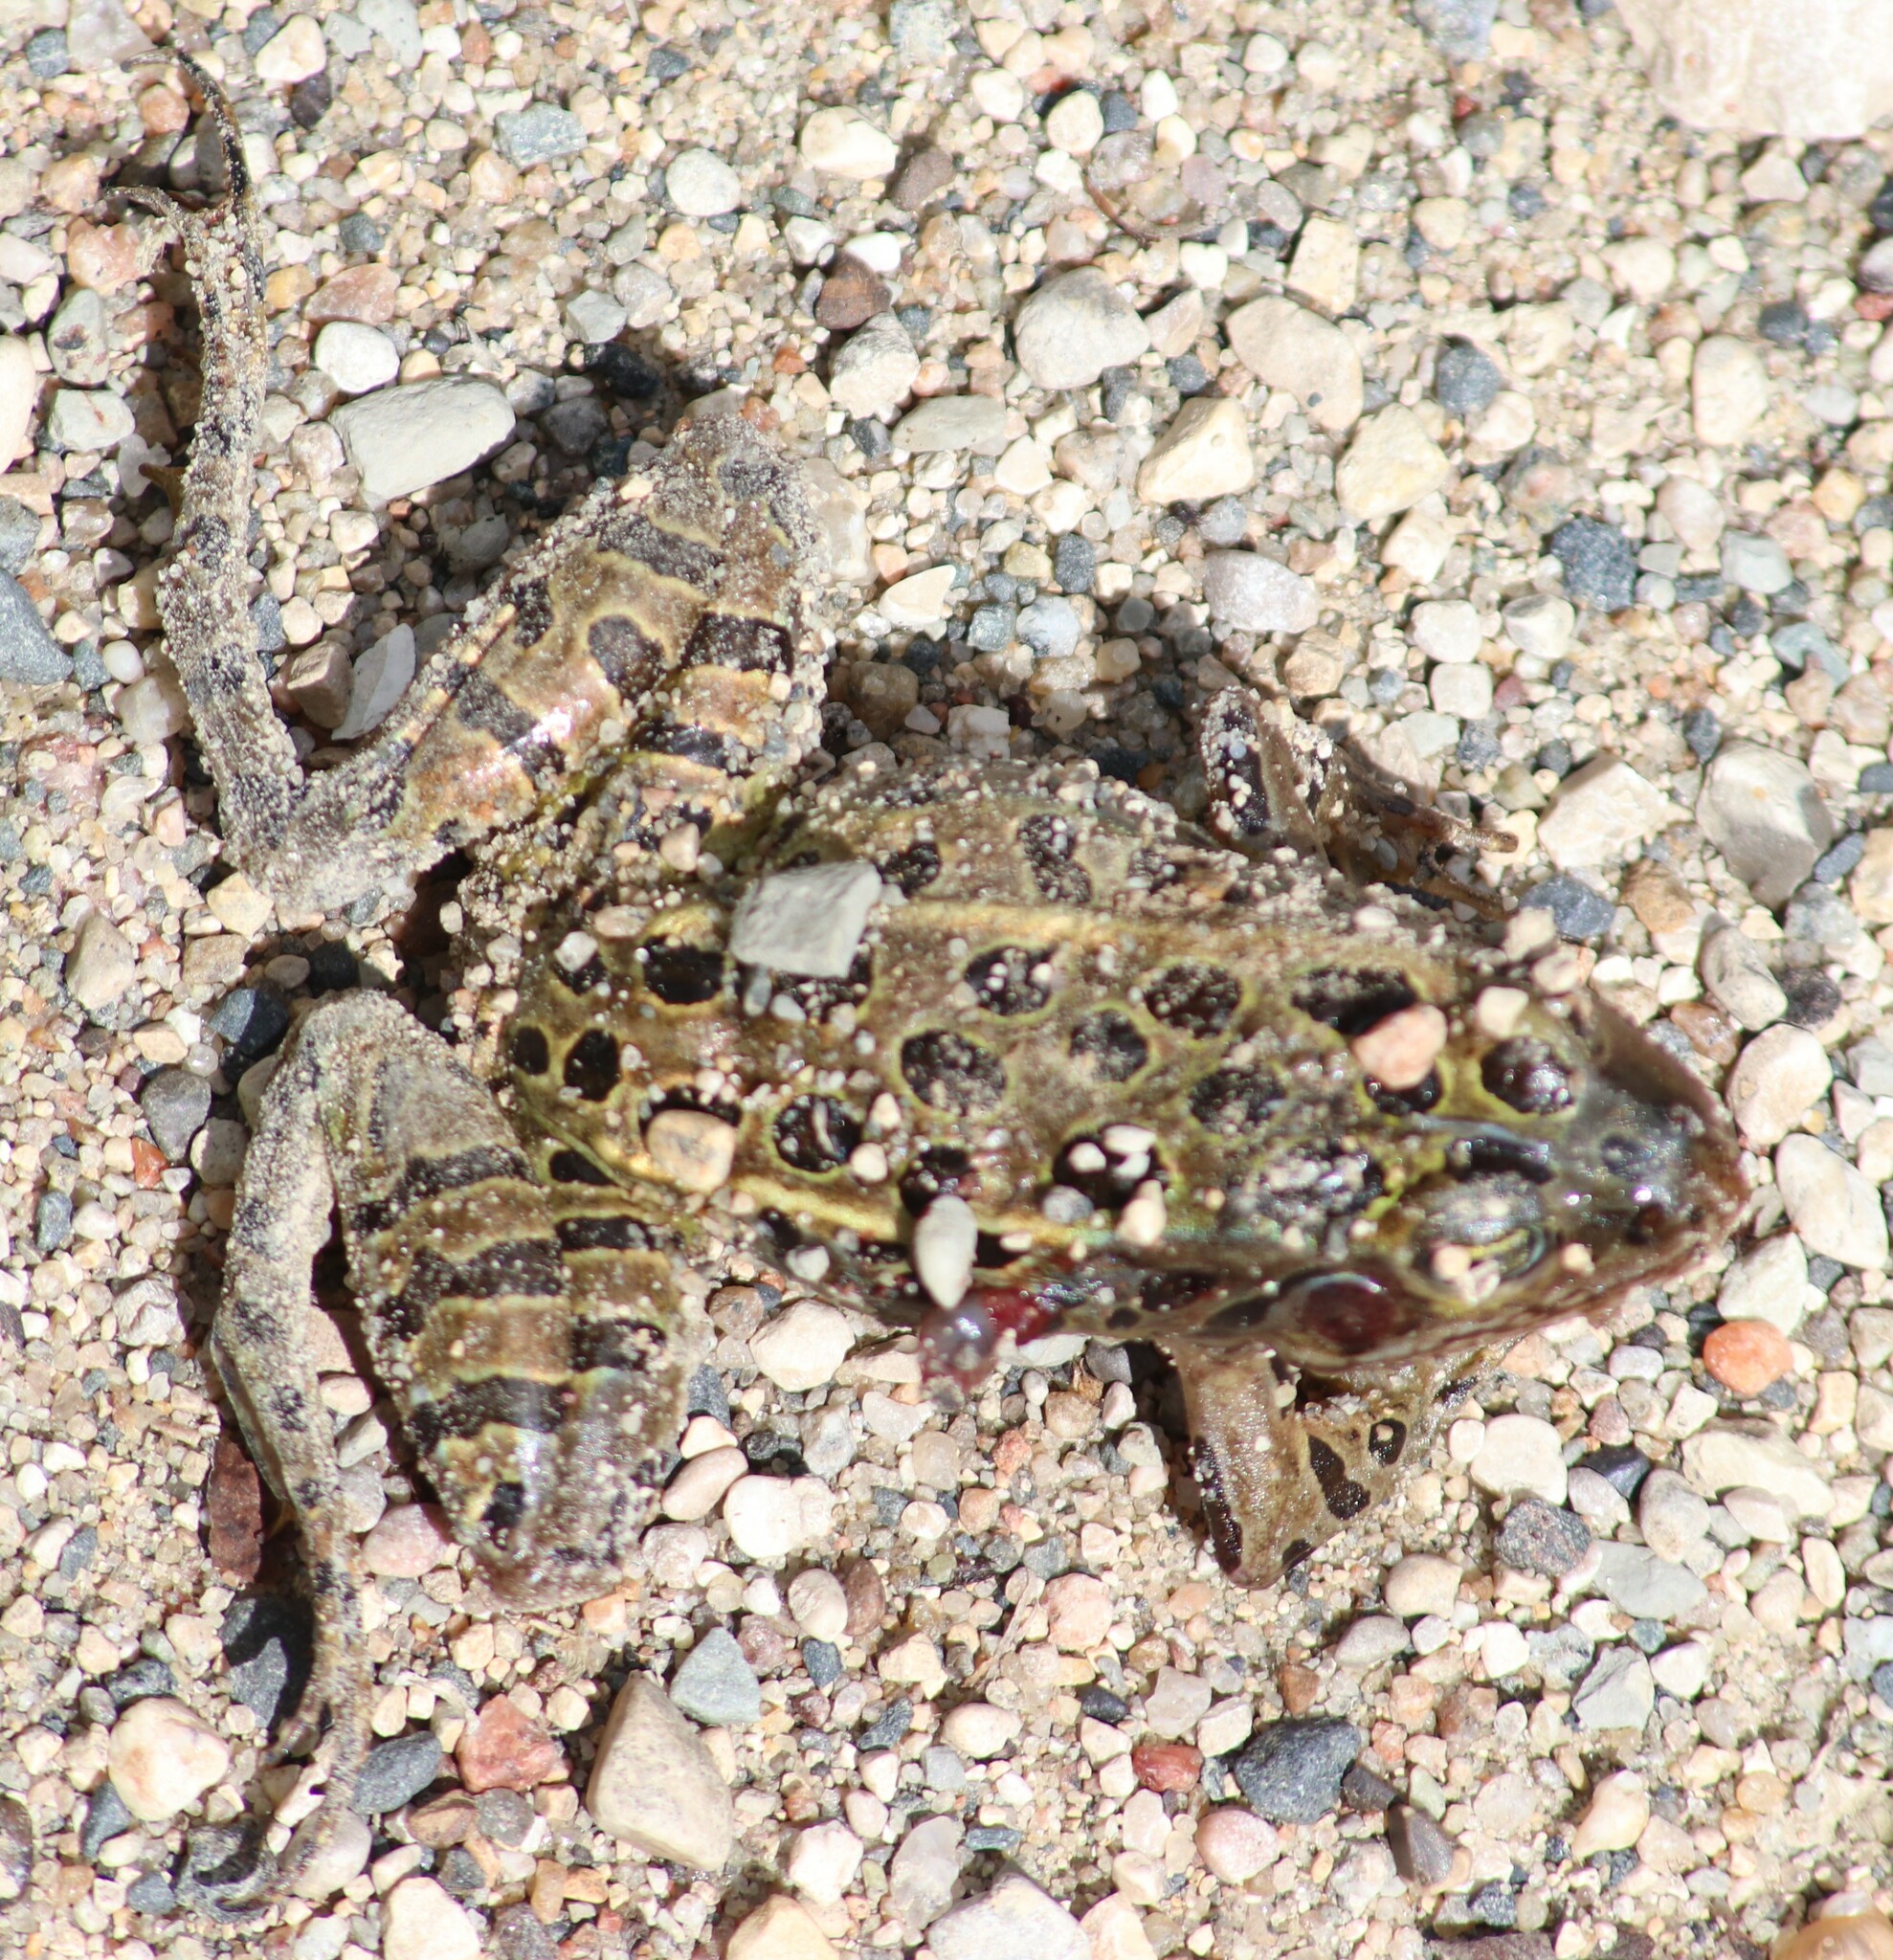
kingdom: Animalia
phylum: Chordata
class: Amphibia
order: Anura
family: Ranidae
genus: Lithobates
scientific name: Lithobates pipiens
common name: Northern leopard frog
